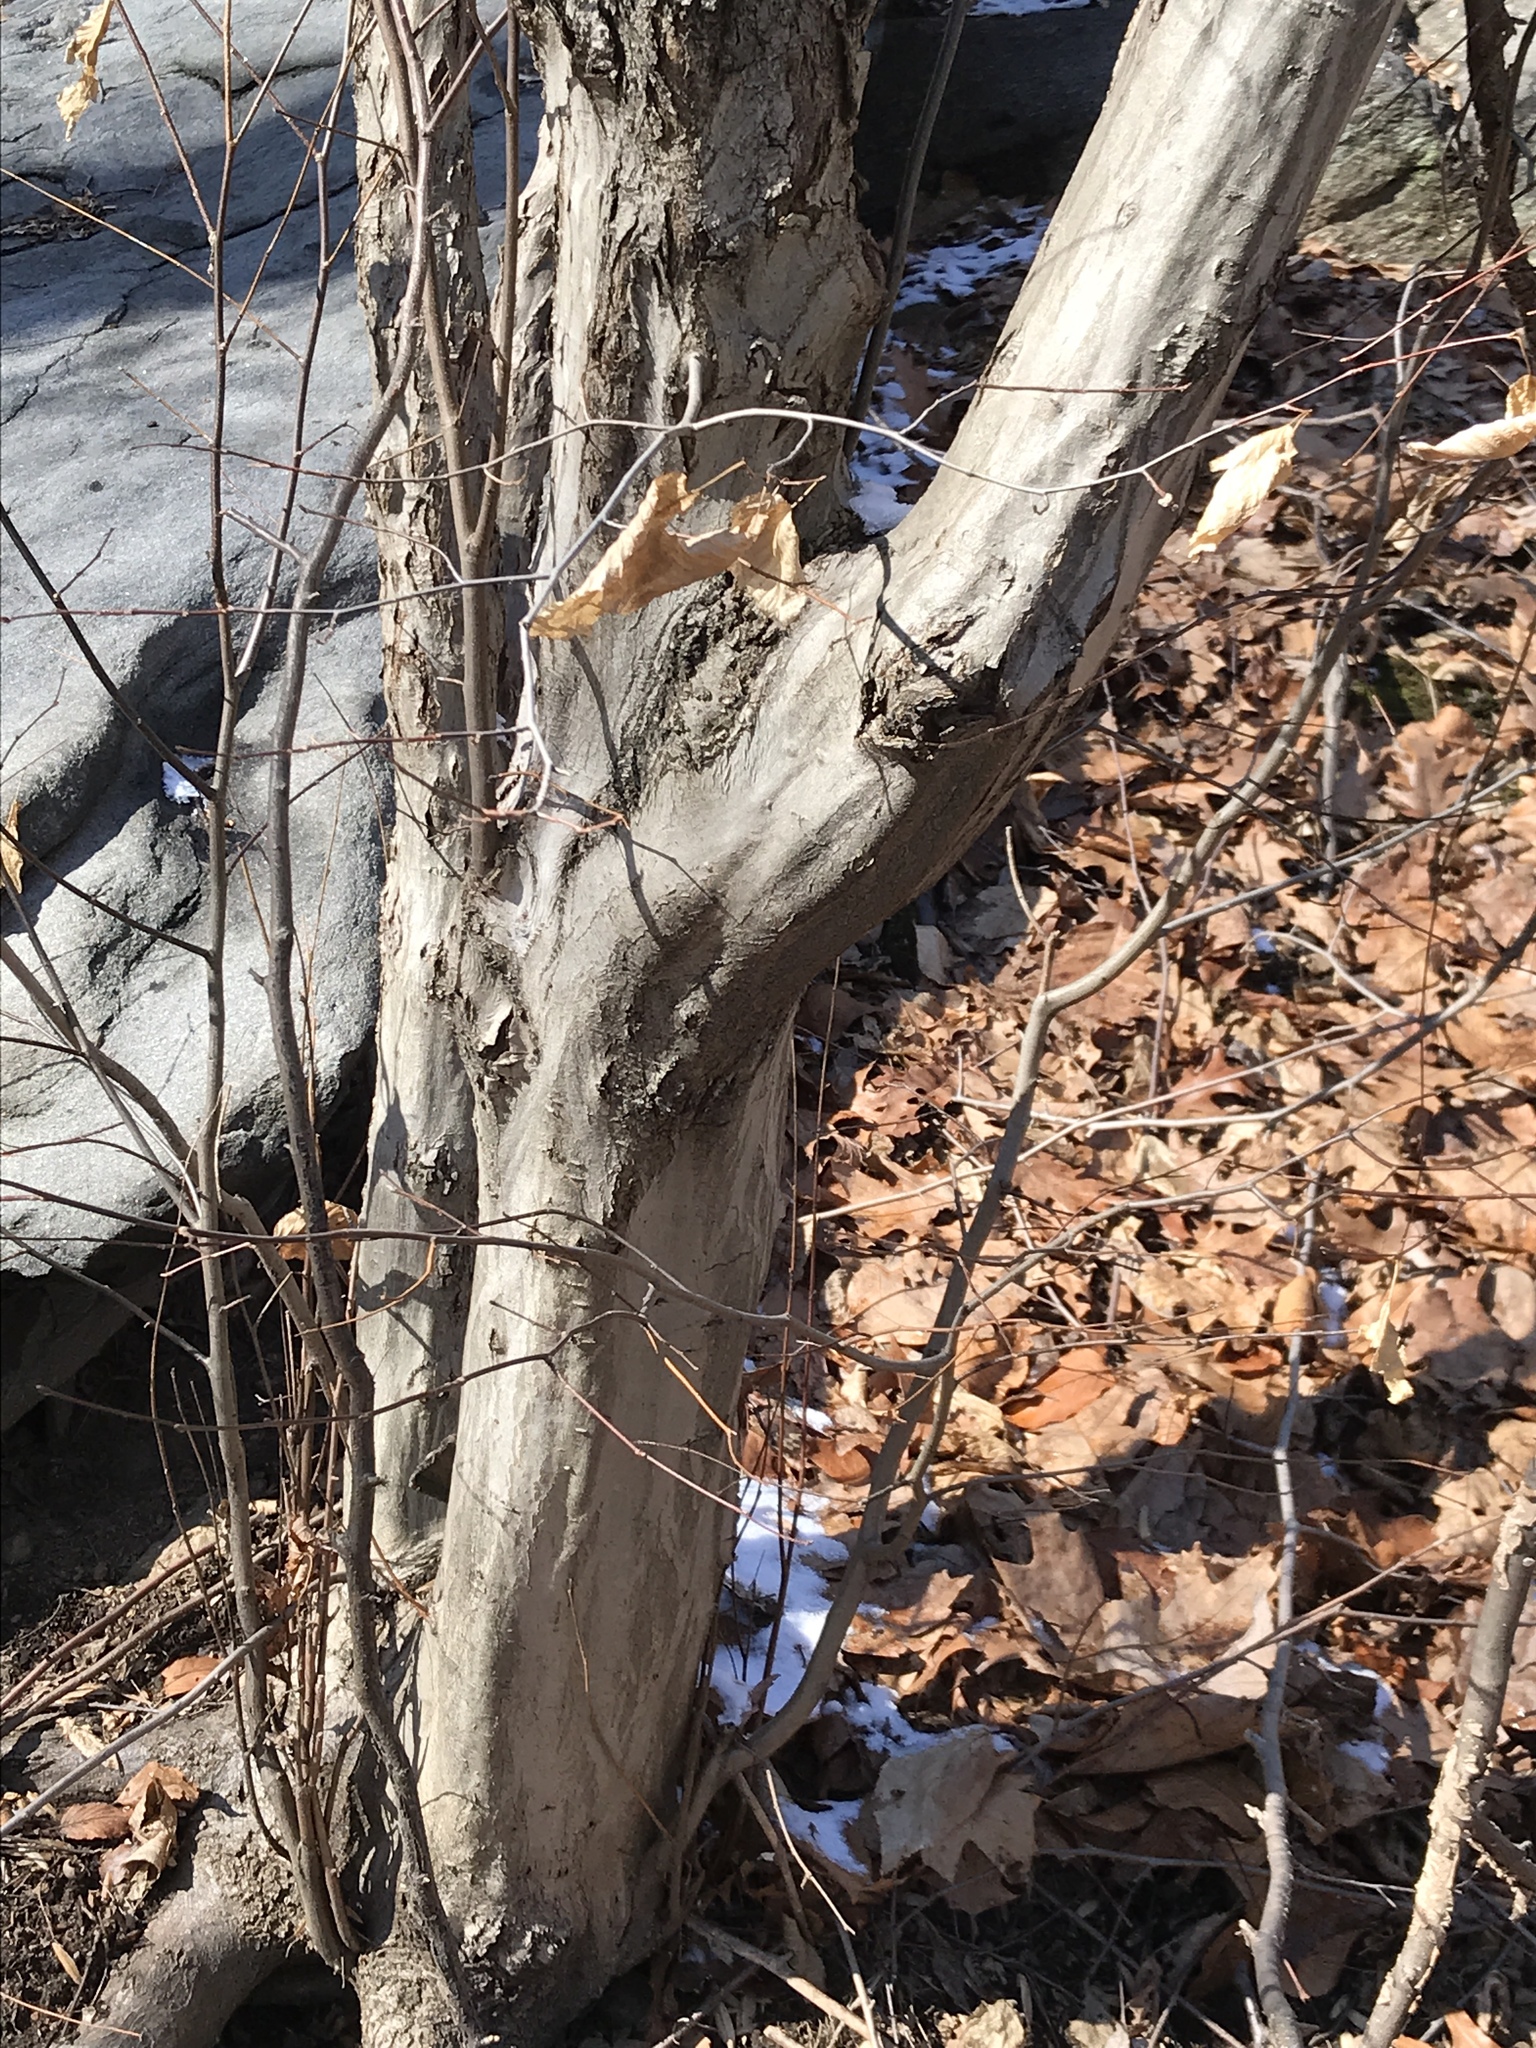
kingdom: Plantae
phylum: Tracheophyta
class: Magnoliopsida
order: Fagales
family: Betulaceae
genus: Carpinus
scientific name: Carpinus caroliniana
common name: American hornbeam
